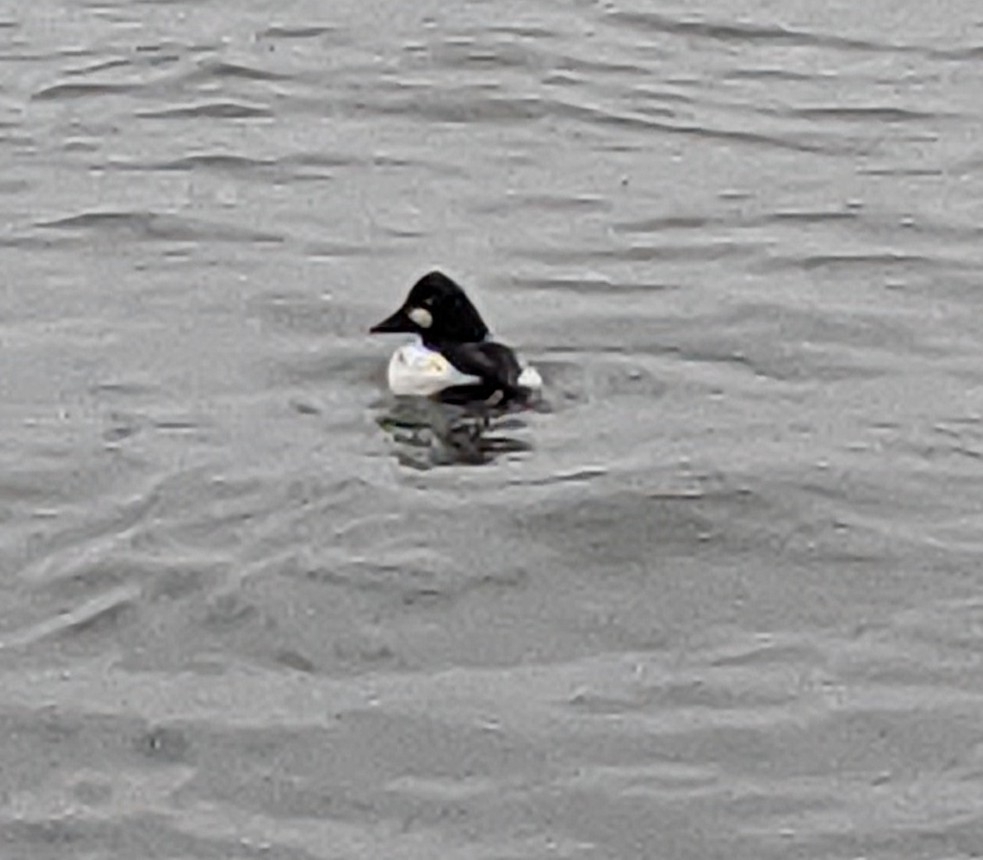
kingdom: Animalia
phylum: Chordata
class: Aves
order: Anseriformes
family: Anatidae
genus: Bucephala
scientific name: Bucephala clangula
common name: Common goldeneye
